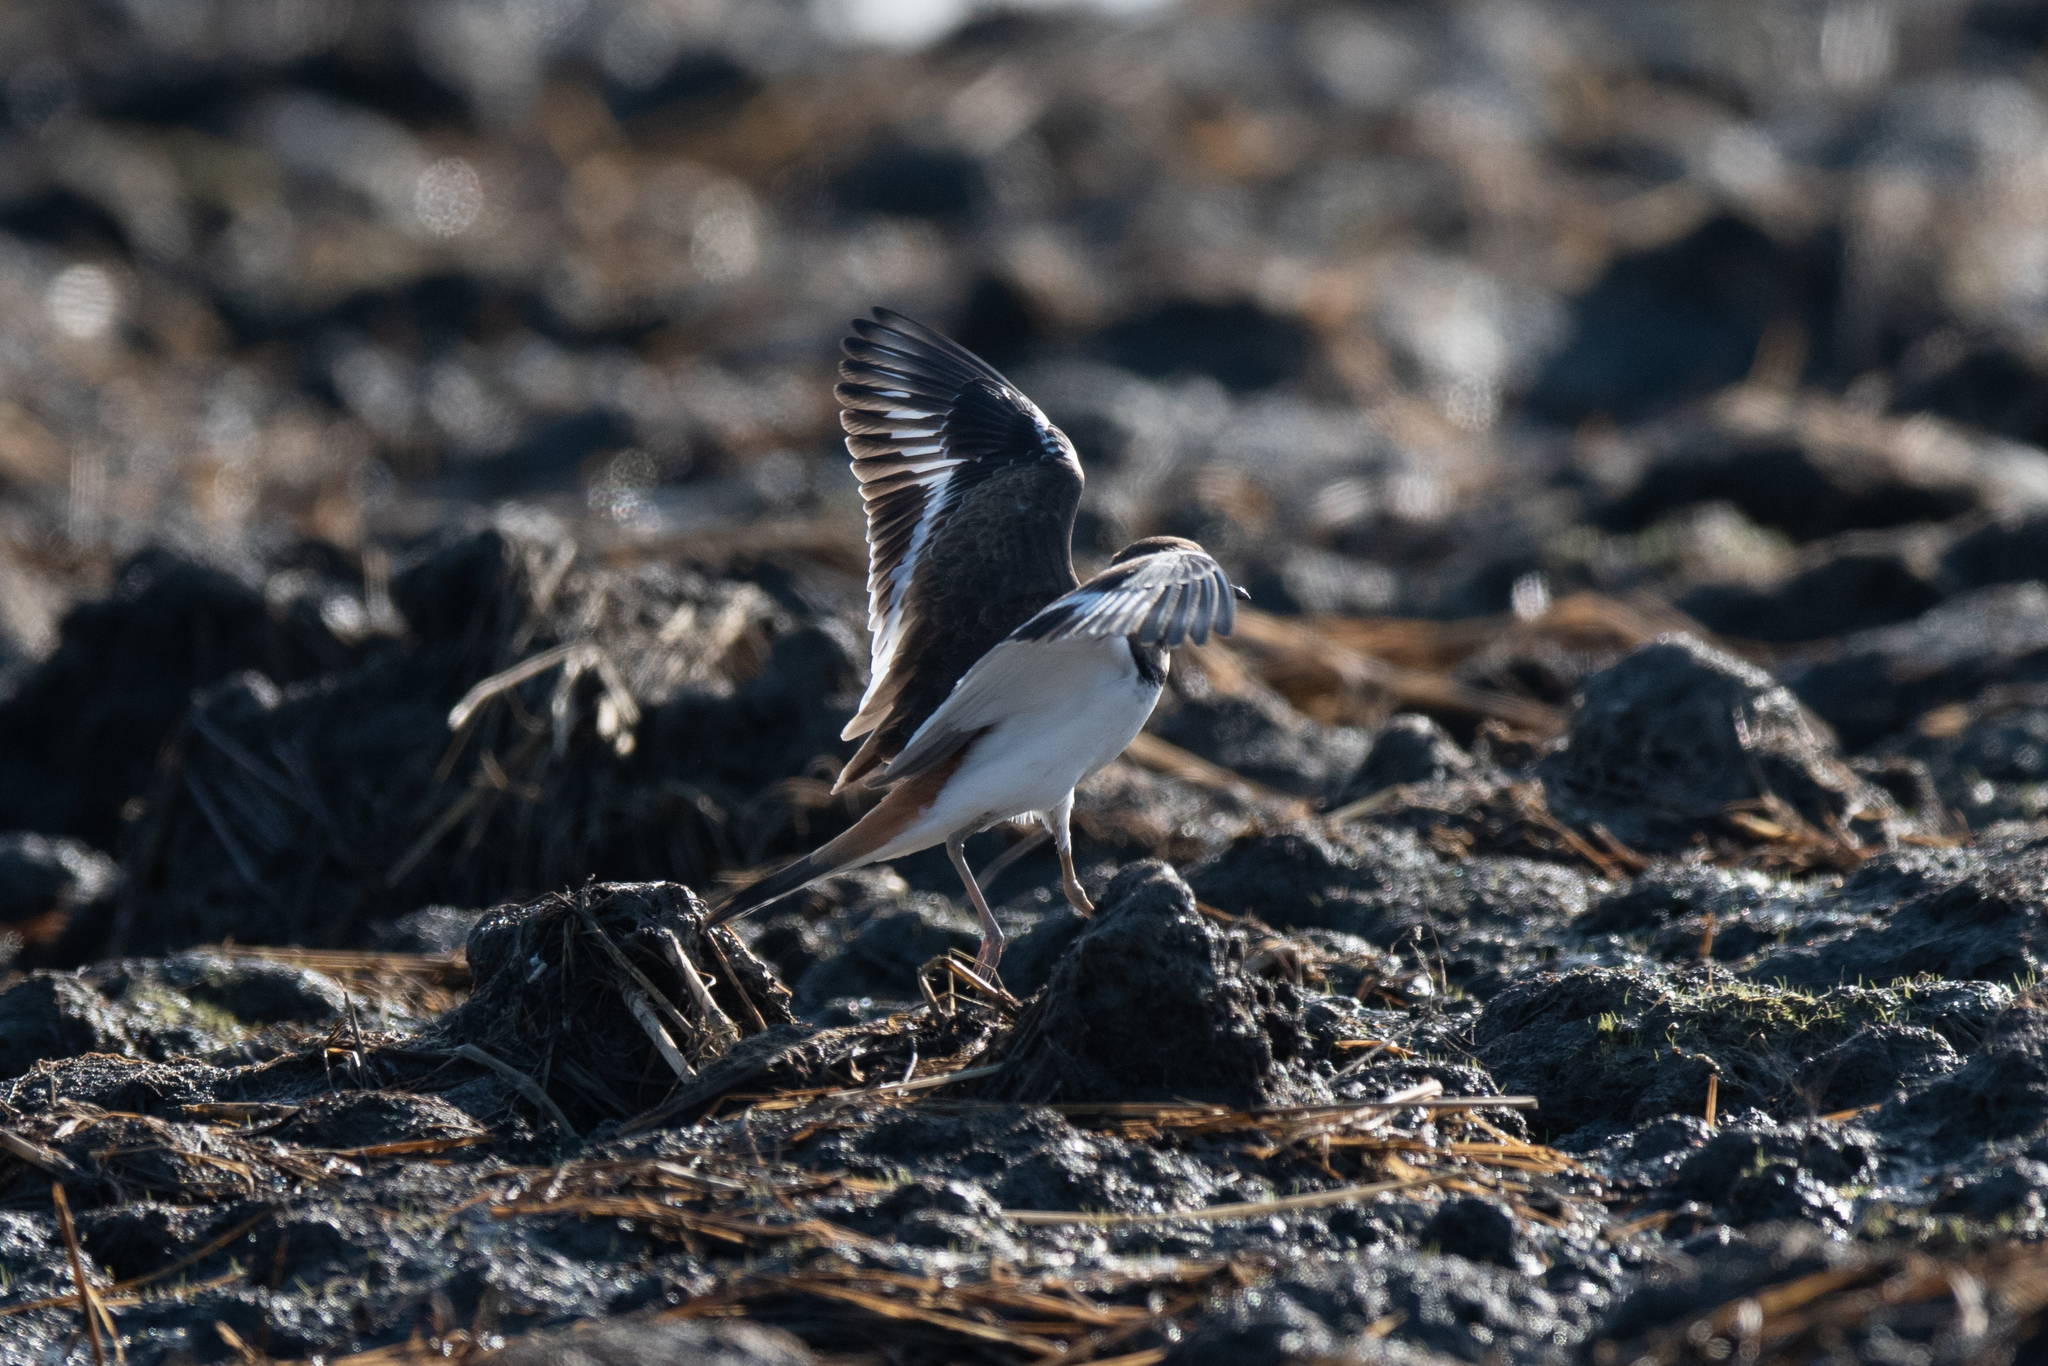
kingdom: Animalia
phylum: Chordata
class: Aves
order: Charadriiformes
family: Charadriidae
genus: Charadrius
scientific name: Charadrius vociferus
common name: Killdeer
